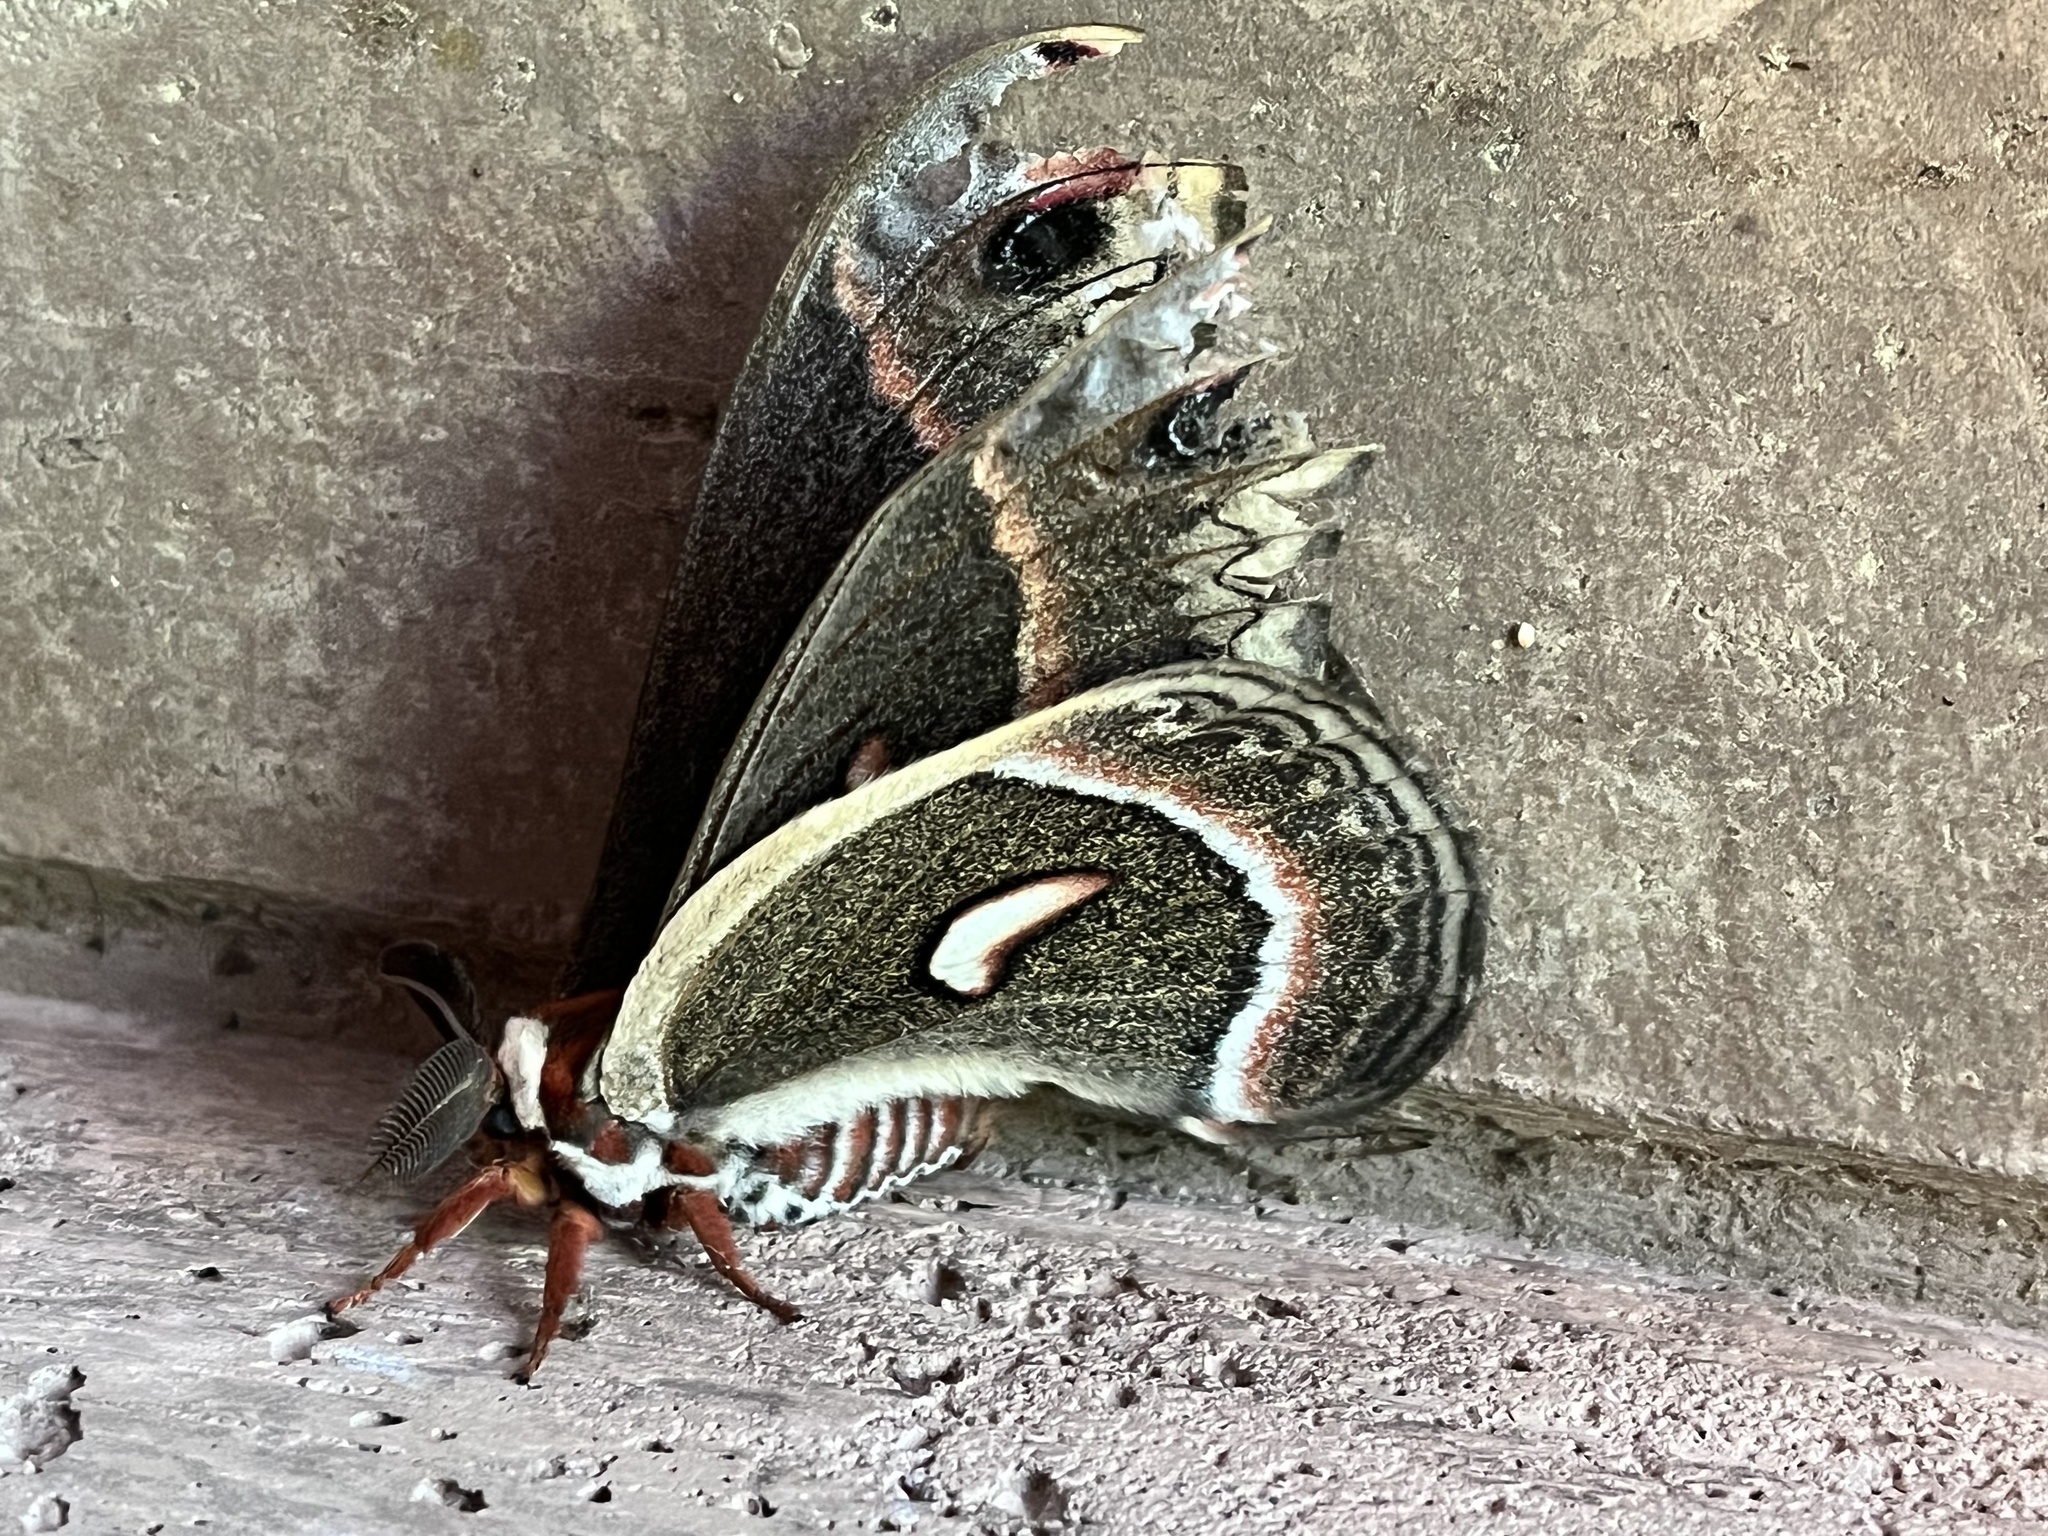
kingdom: Animalia
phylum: Arthropoda
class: Insecta
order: Lepidoptera
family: Saturniidae
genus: Hyalophora
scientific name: Hyalophora cecropia
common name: Cecropia silkmoth
